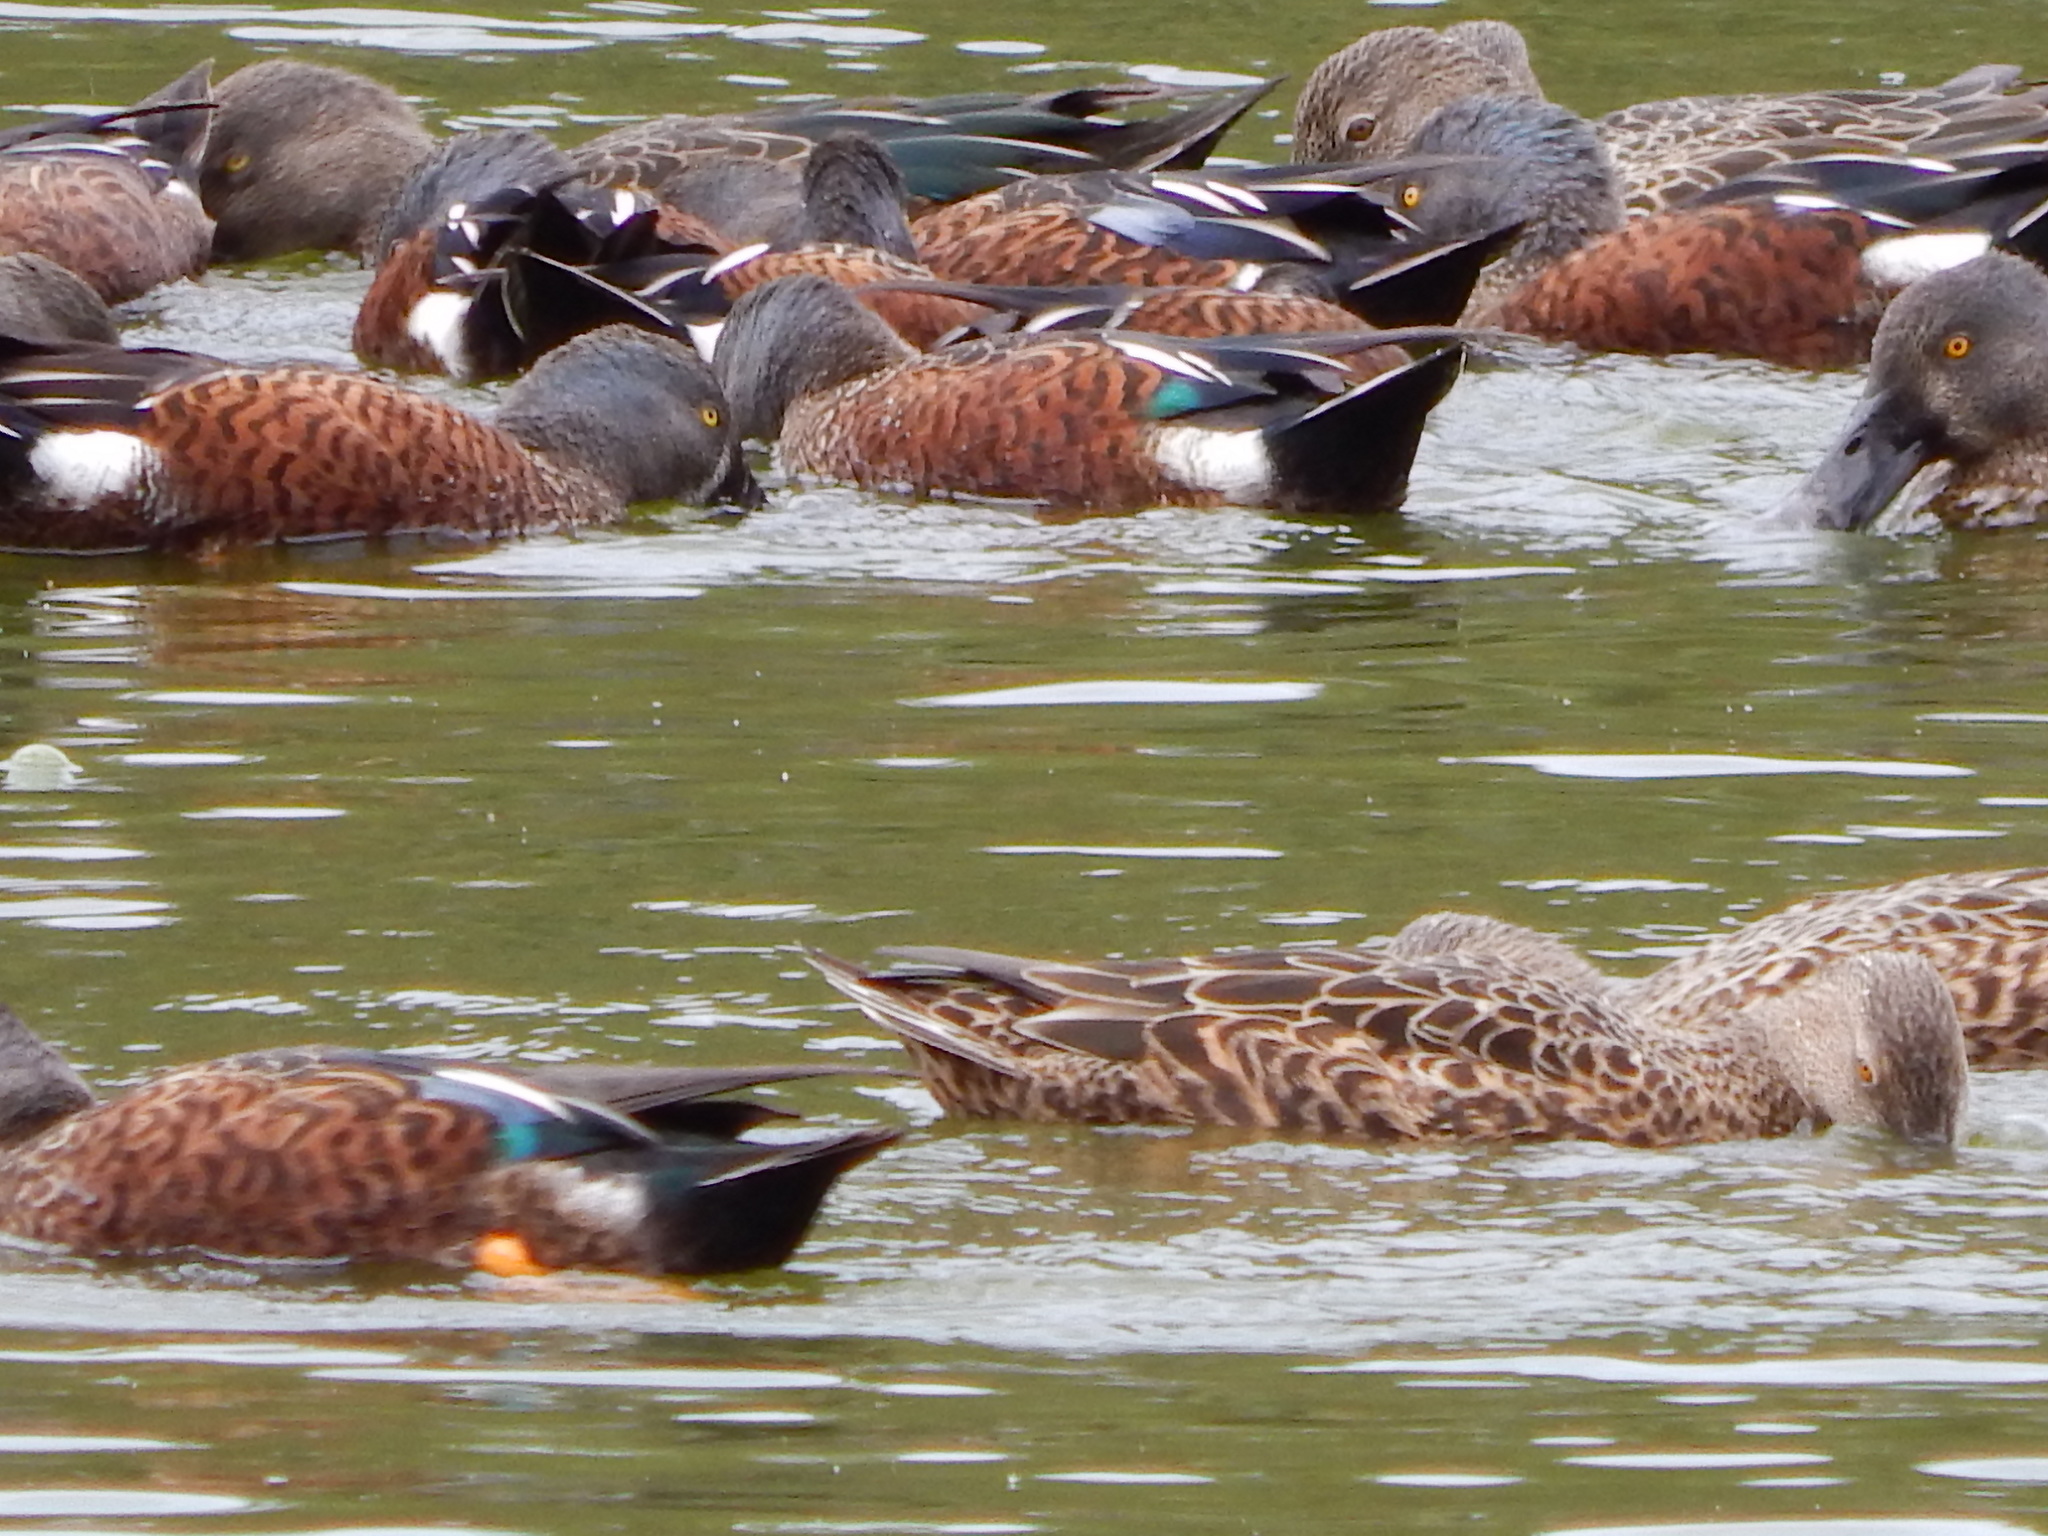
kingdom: Animalia
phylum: Chordata
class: Aves
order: Anseriformes
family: Anatidae
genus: Spatula
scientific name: Spatula rhynchotis
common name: Australian shoveler
